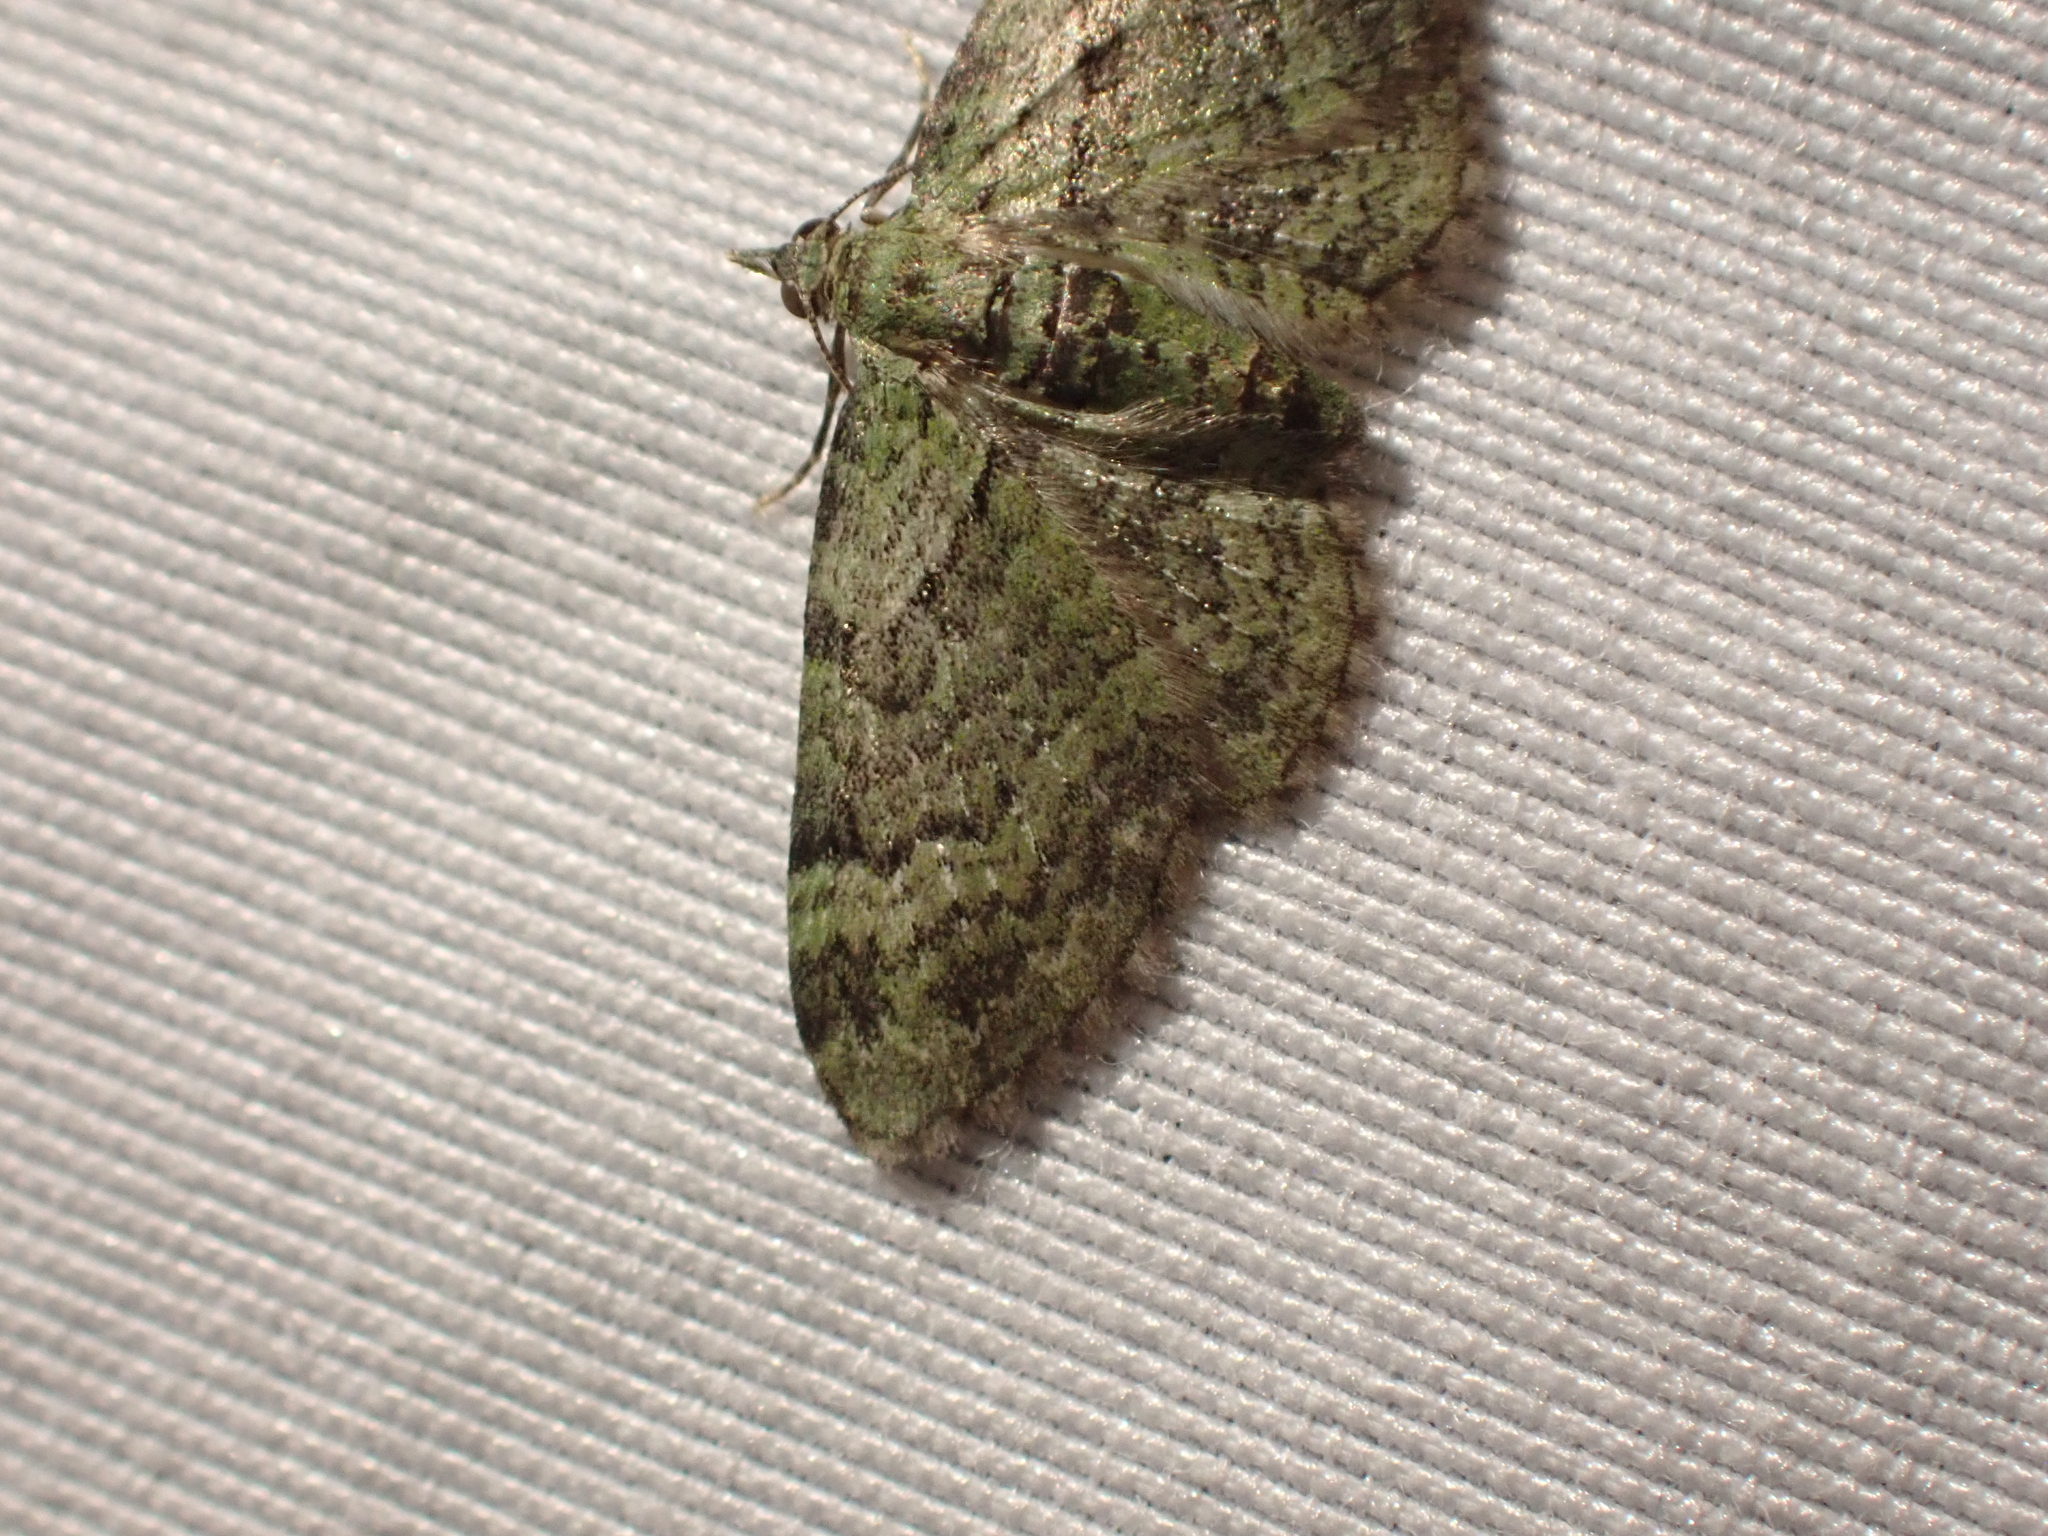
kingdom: Animalia
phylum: Arthropoda
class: Insecta
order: Lepidoptera
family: Geometridae
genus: Pasiphila
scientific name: Pasiphila rectangulata
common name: Green pug
